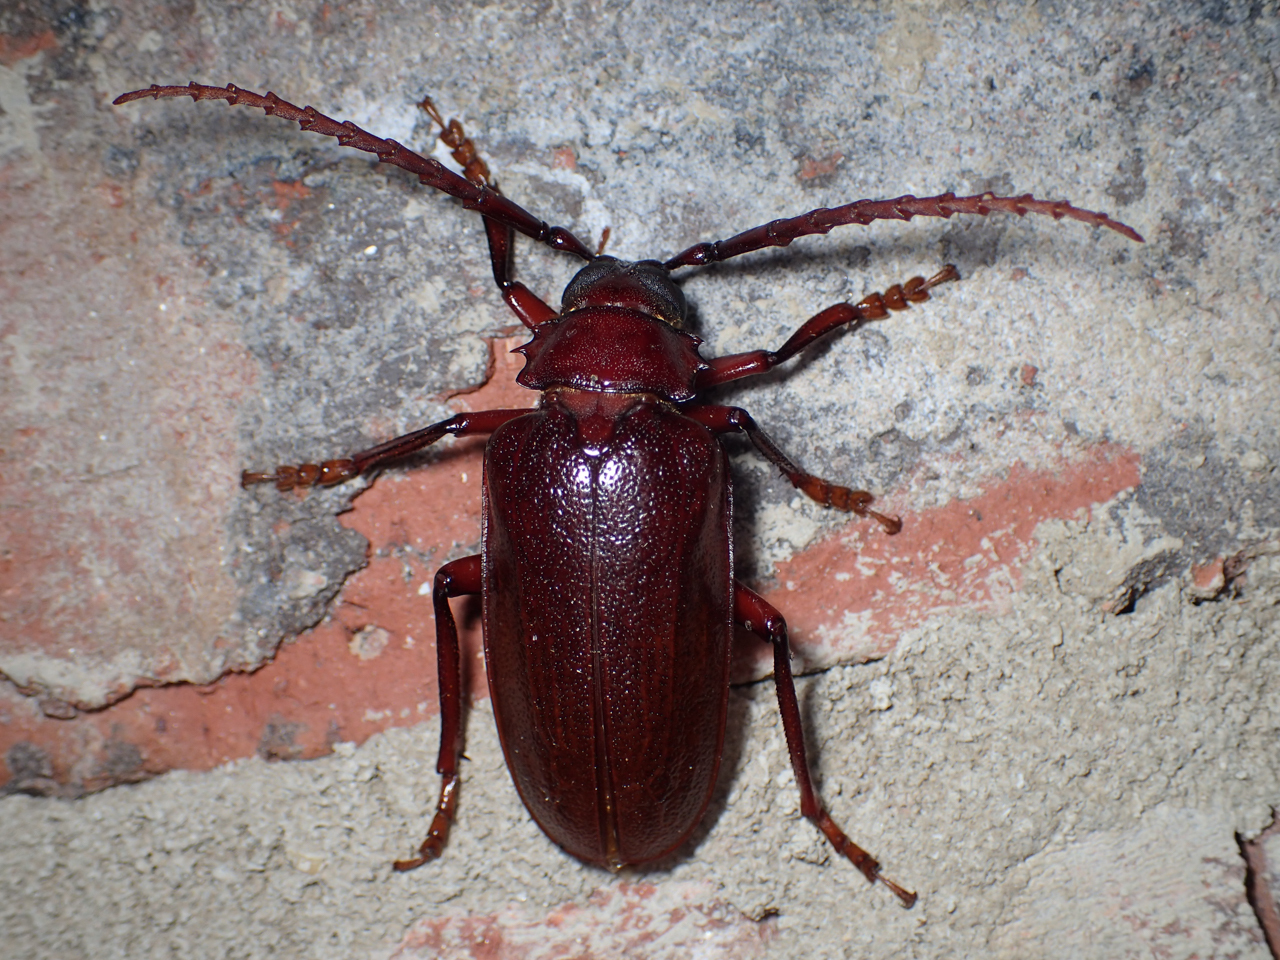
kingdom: Animalia
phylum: Arthropoda
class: Insecta
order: Coleoptera
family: Cerambycidae
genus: Prionus
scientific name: Prionus pocularis
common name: Tooth-necked longhorn beetle
